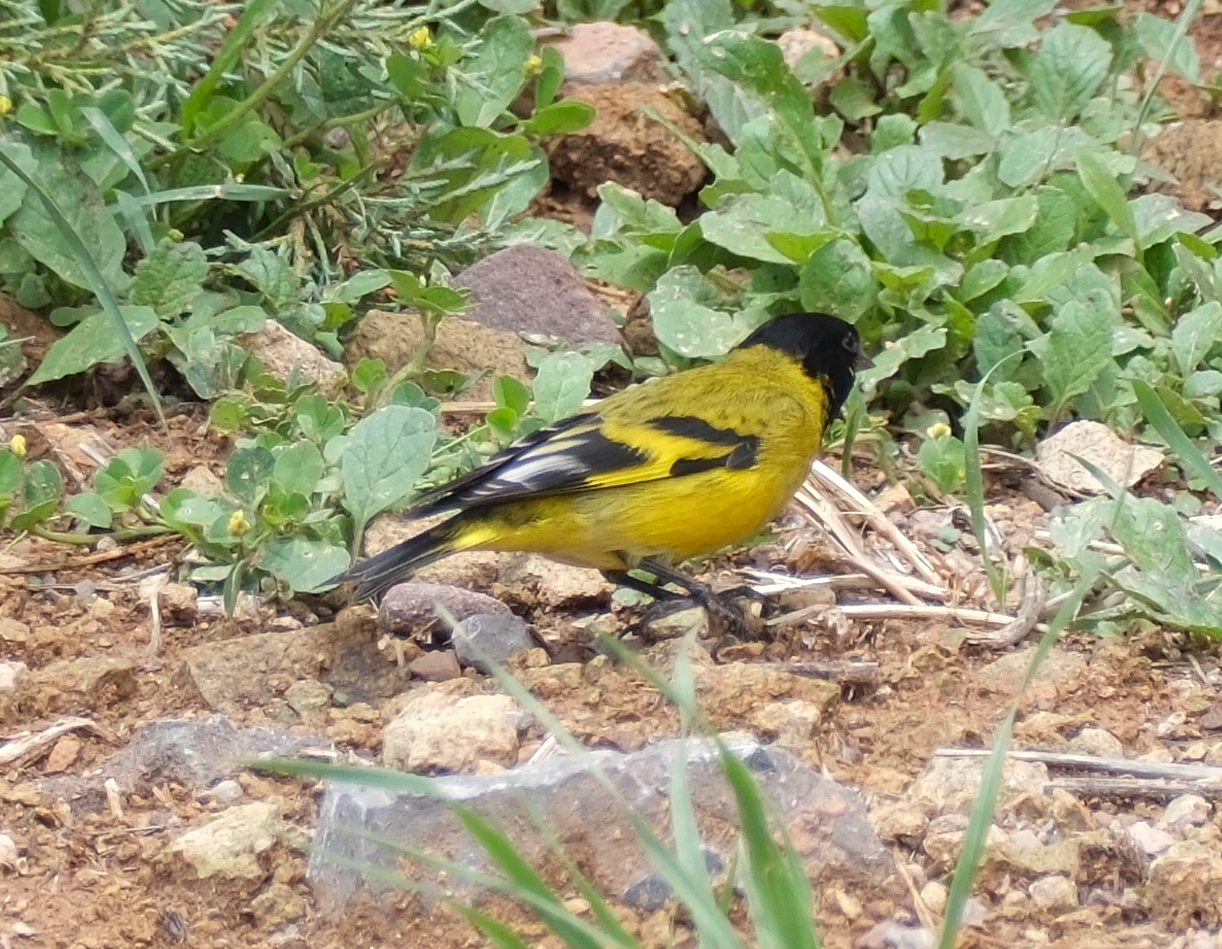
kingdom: Animalia
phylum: Chordata
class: Aves
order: Passeriformes
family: Fringillidae
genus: Spinus
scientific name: Spinus magellanicus
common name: Hooded siskin
